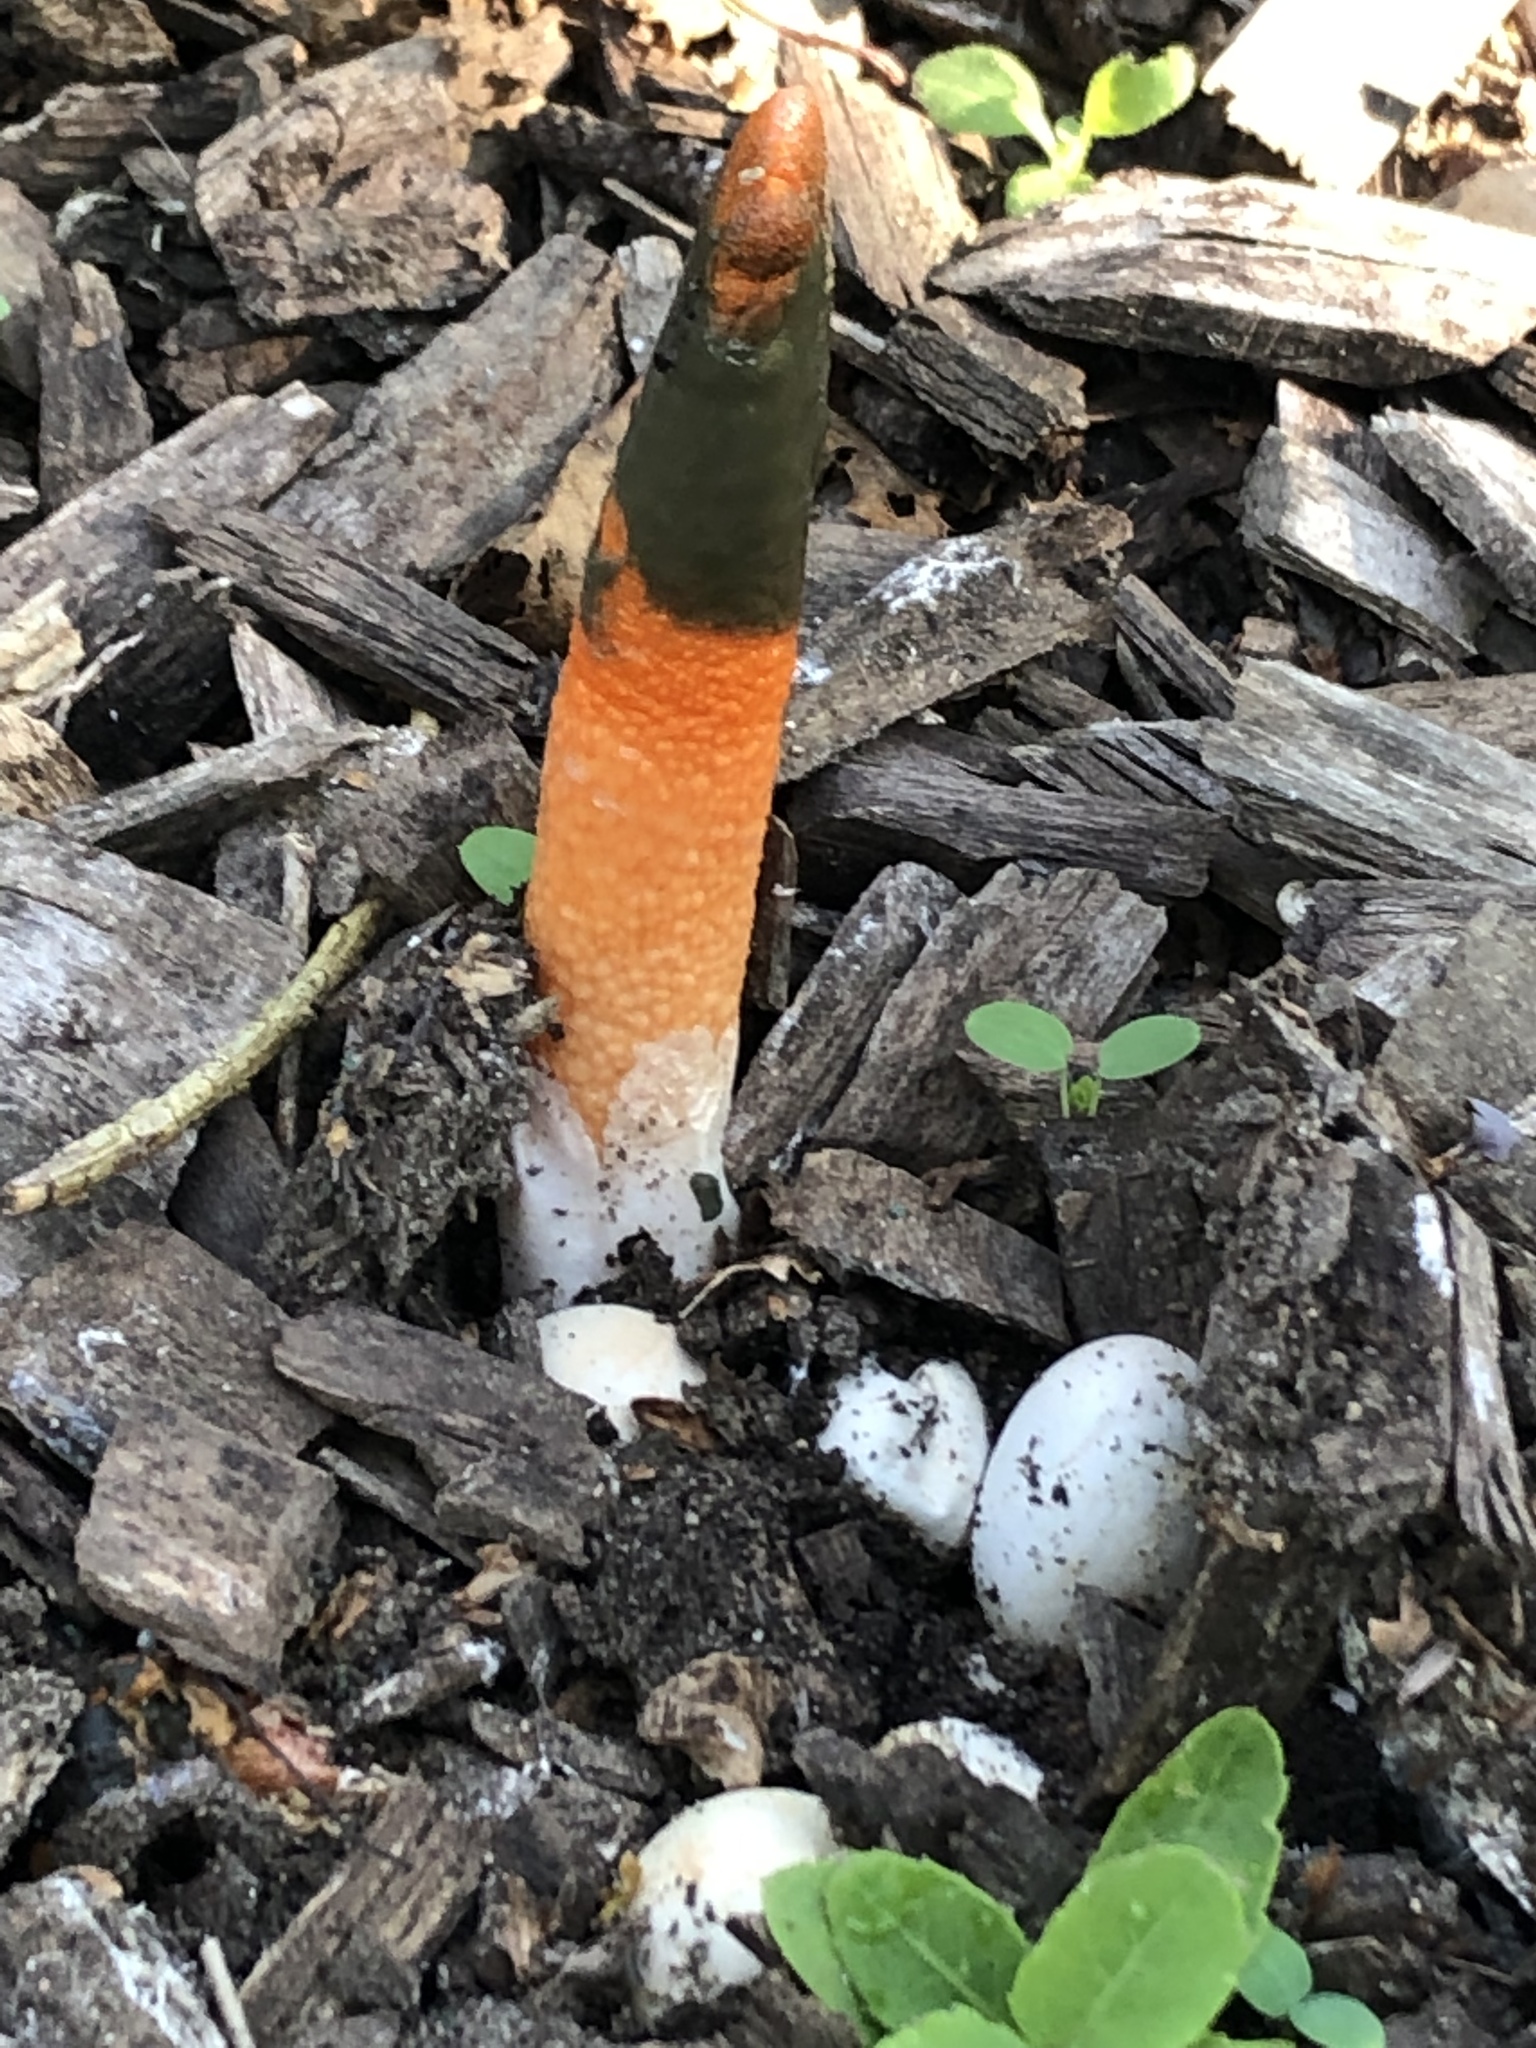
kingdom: Fungi
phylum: Basidiomycota
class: Agaricomycetes
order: Phallales
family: Phallaceae
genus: Mutinus
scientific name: Mutinus elegans
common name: Devil's dipstick
